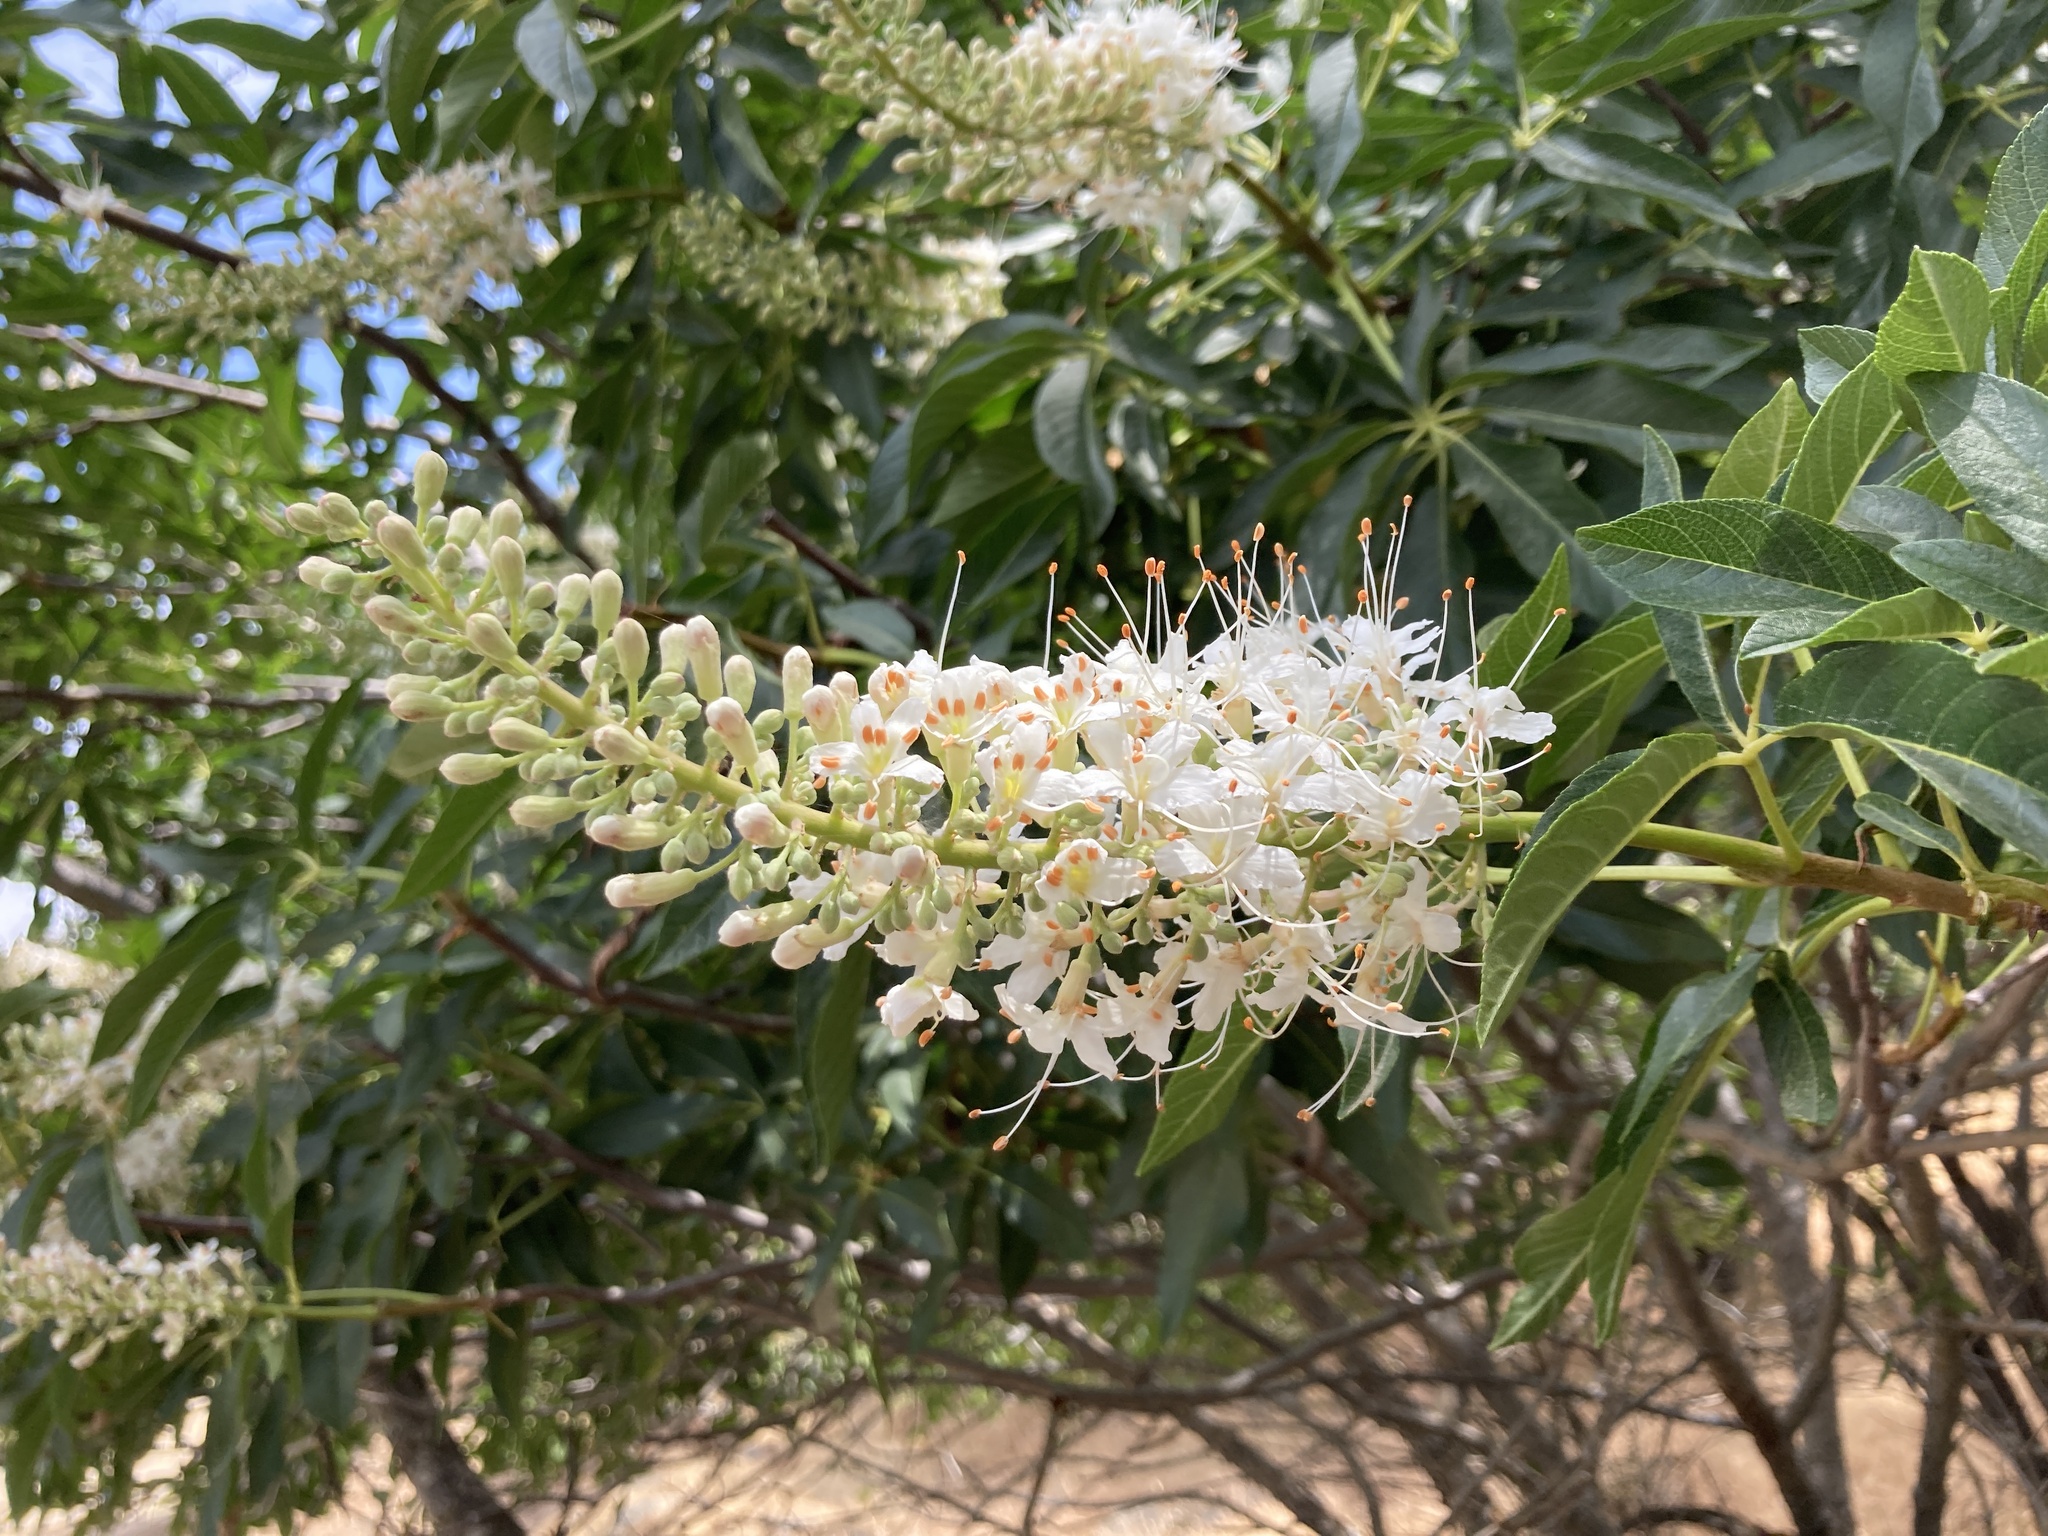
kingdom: Plantae
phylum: Tracheophyta
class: Magnoliopsida
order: Sapindales
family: Sapindaceae
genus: Aesculus
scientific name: Aesculus californica
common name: California buckeye
